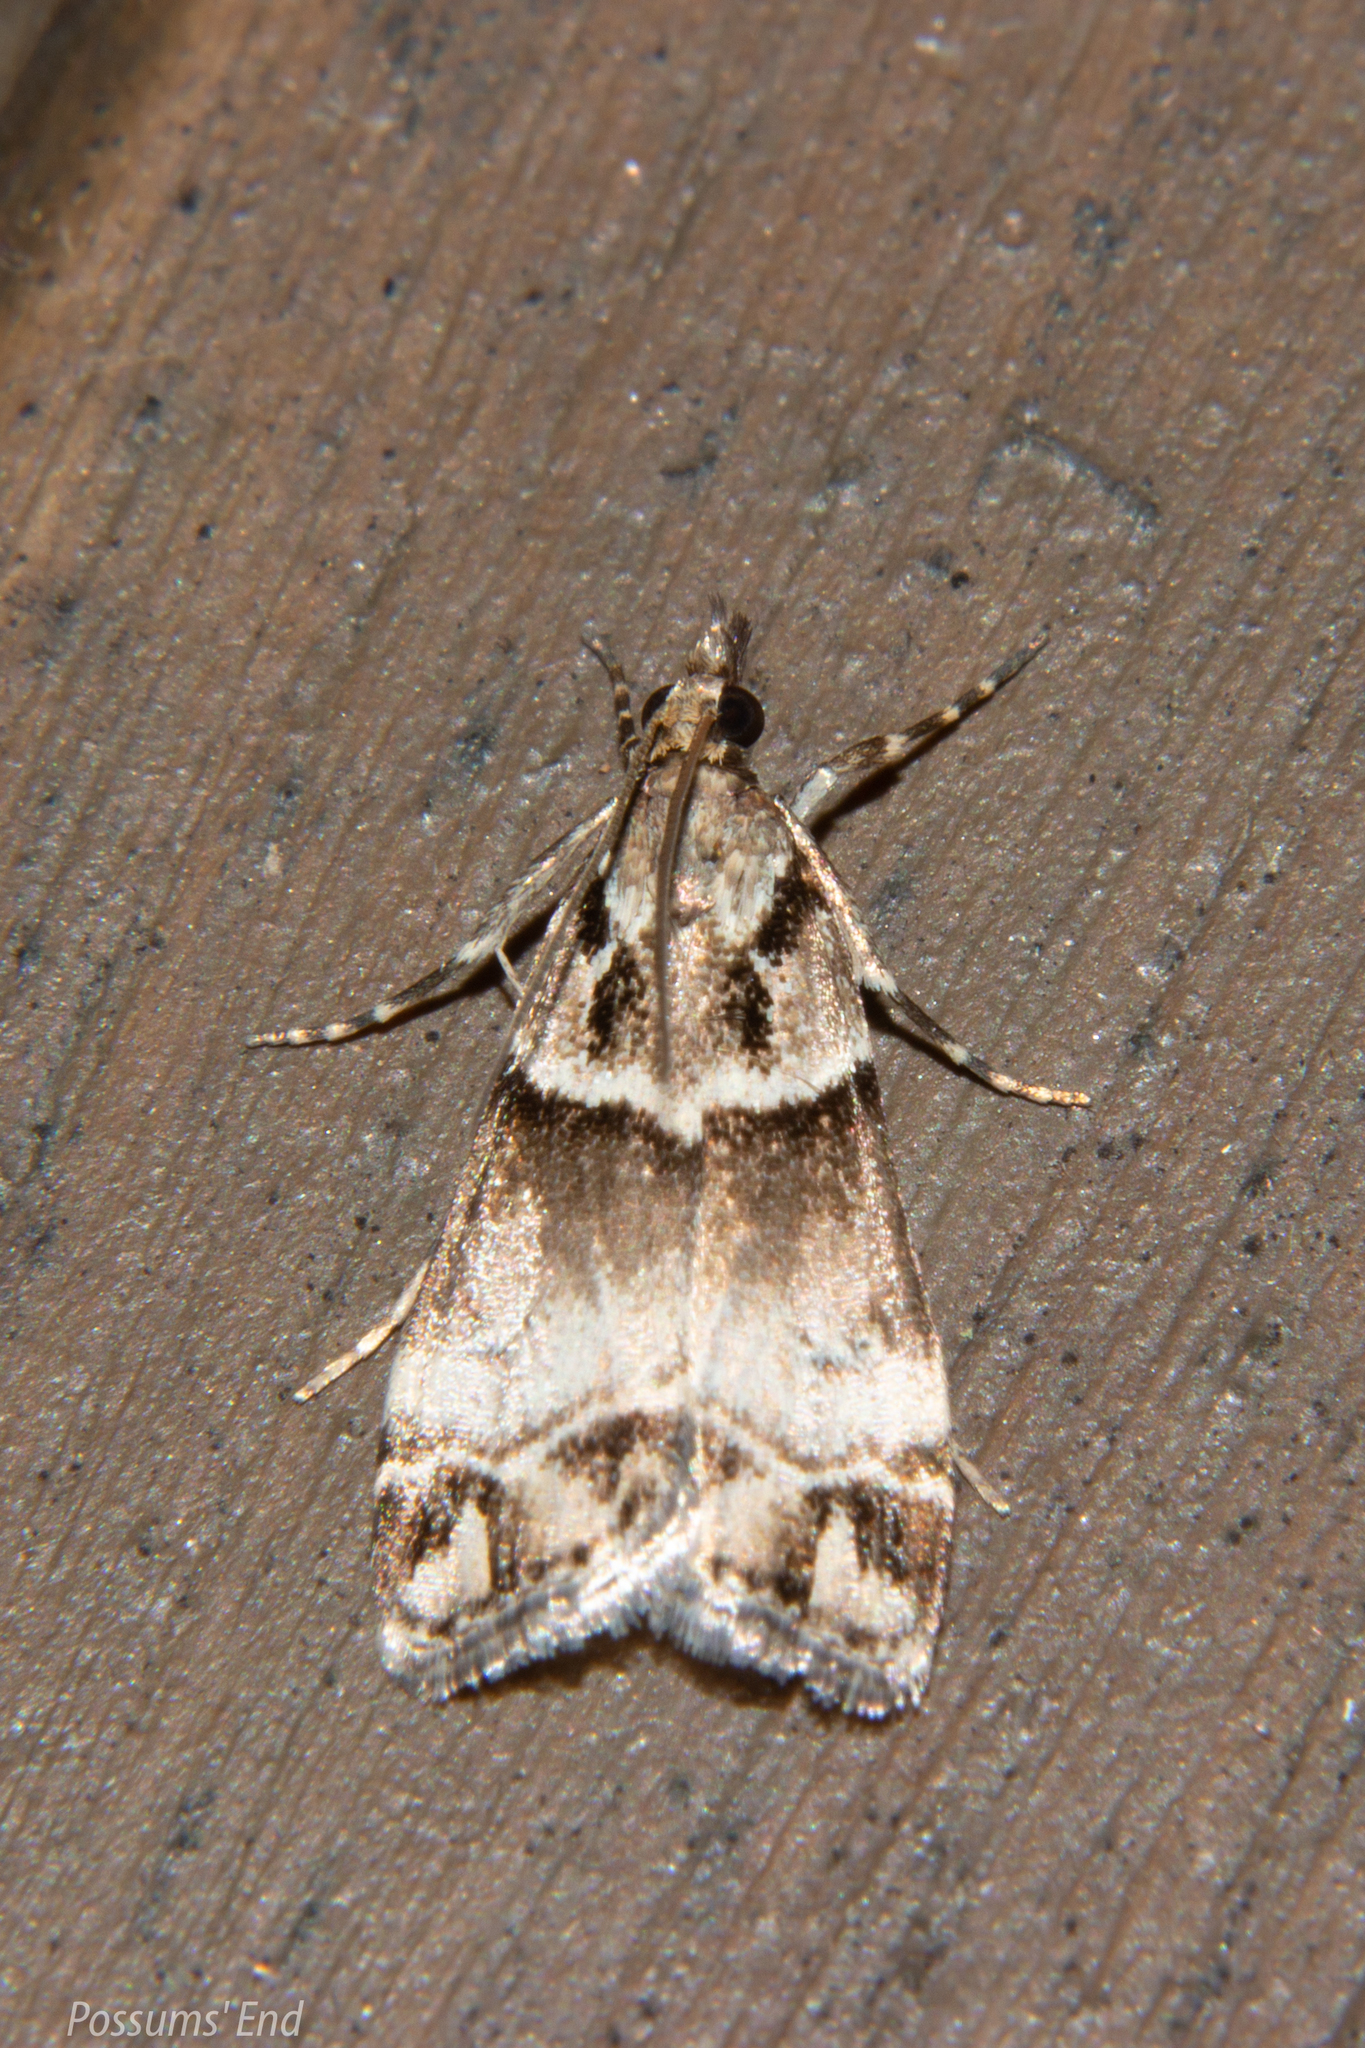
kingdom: Animalia
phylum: Arthropoda
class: Insecta
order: Lepidoptera
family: Crambidae
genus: Eudonia
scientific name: Eudonia periphanes
